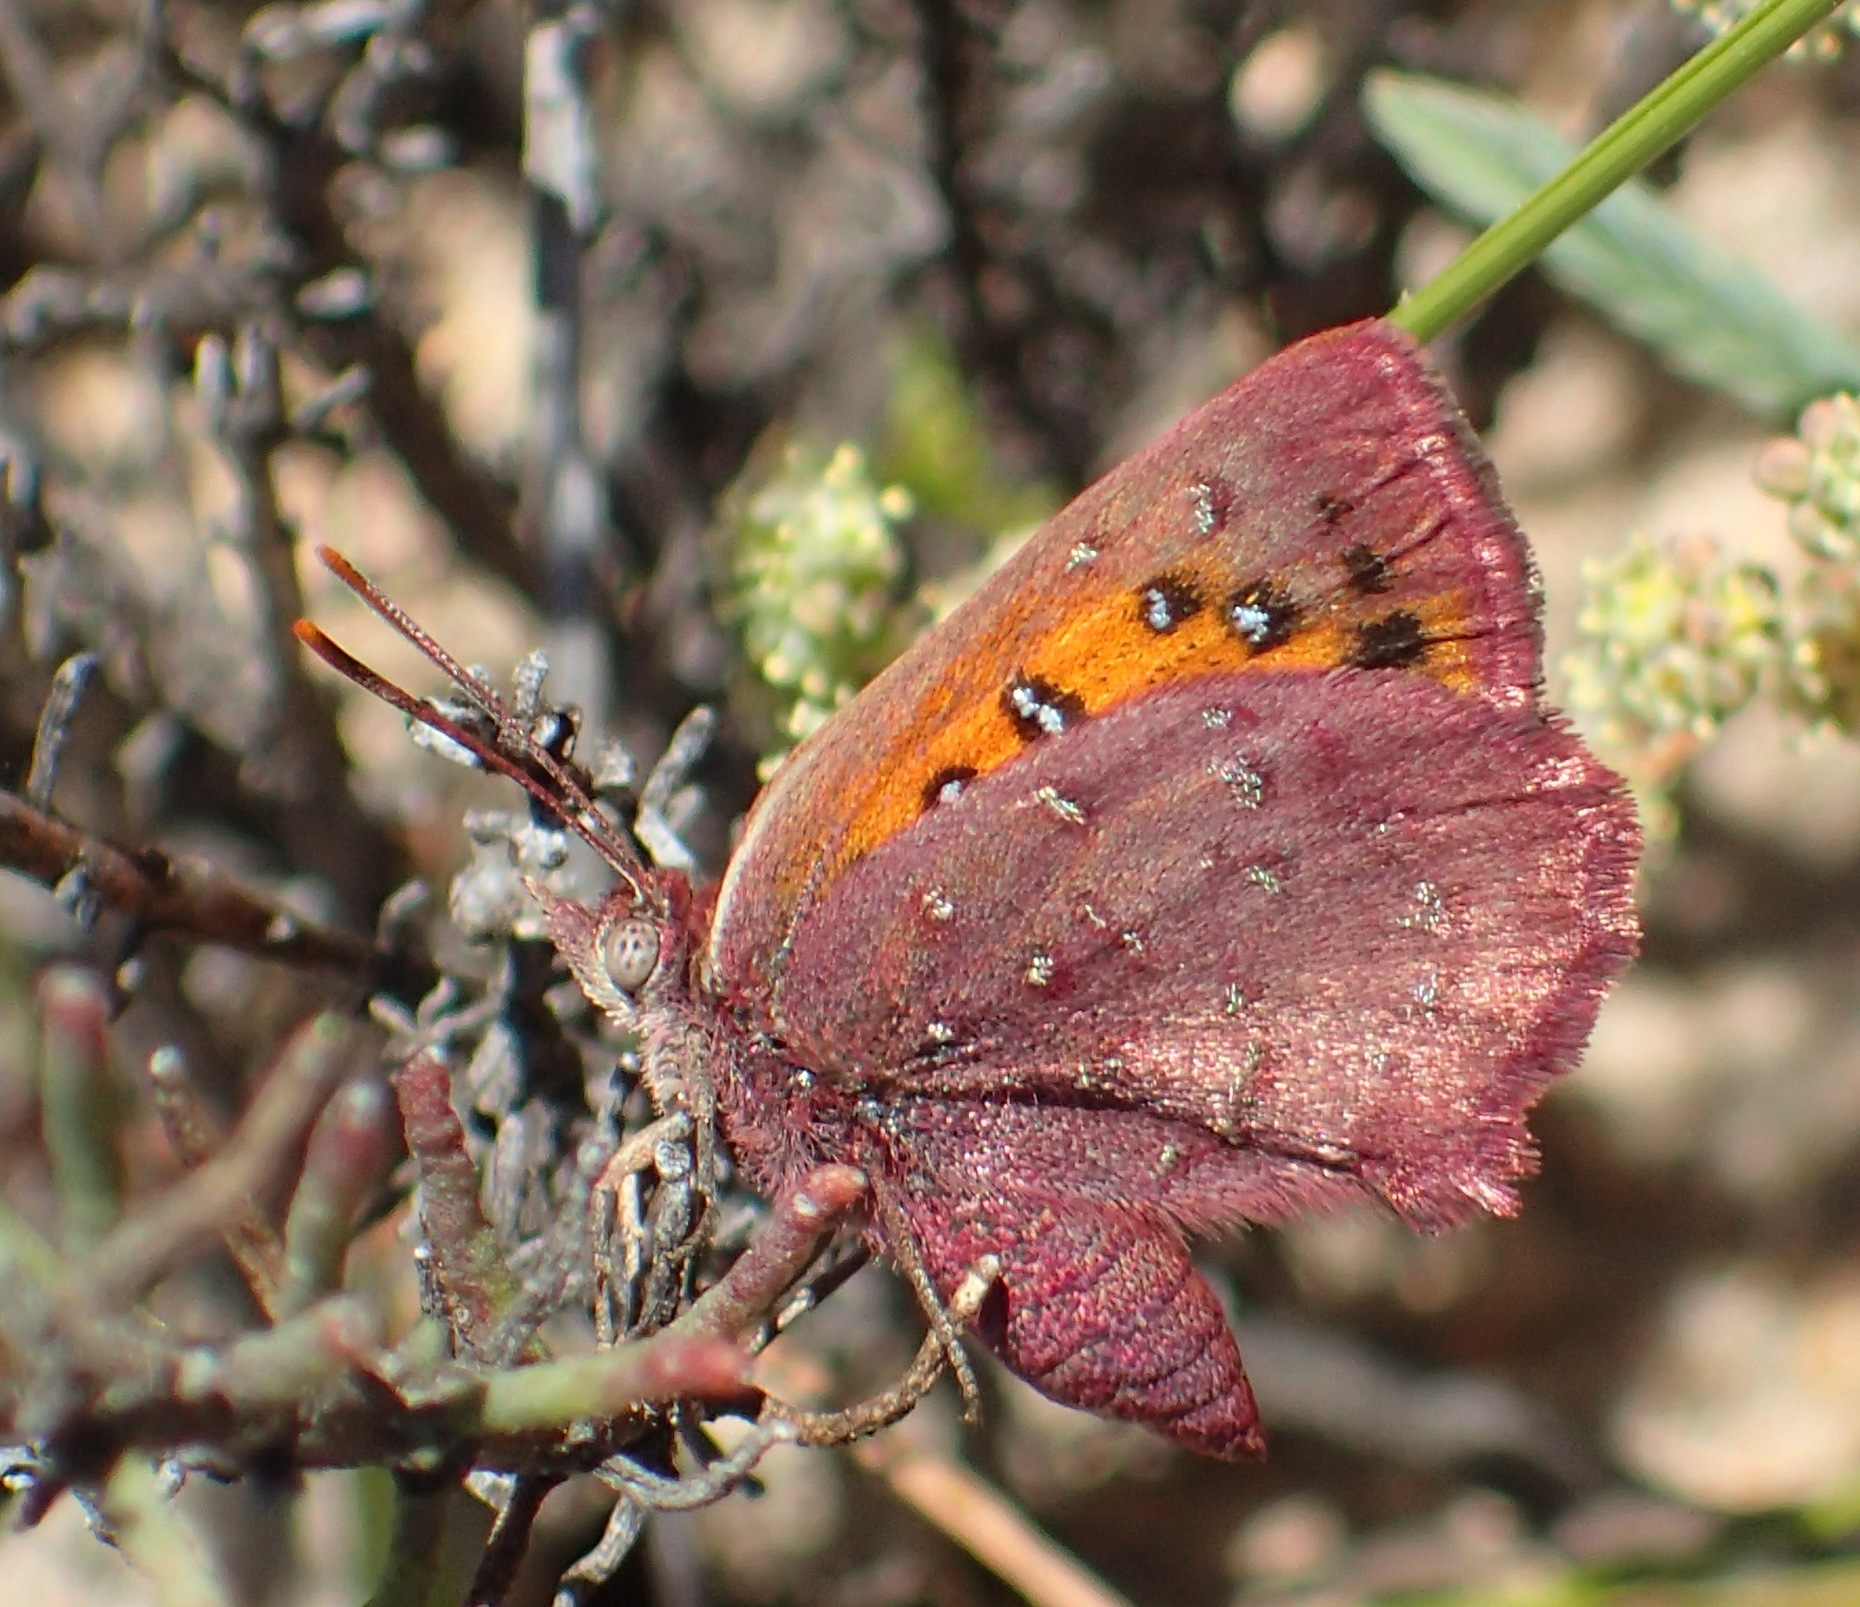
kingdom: Animalia
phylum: Arthropoda
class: Insecta
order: Lepidoptera
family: Lycaenidae
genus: Aloeides
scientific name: Aloeides aranda
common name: Aranda copper
